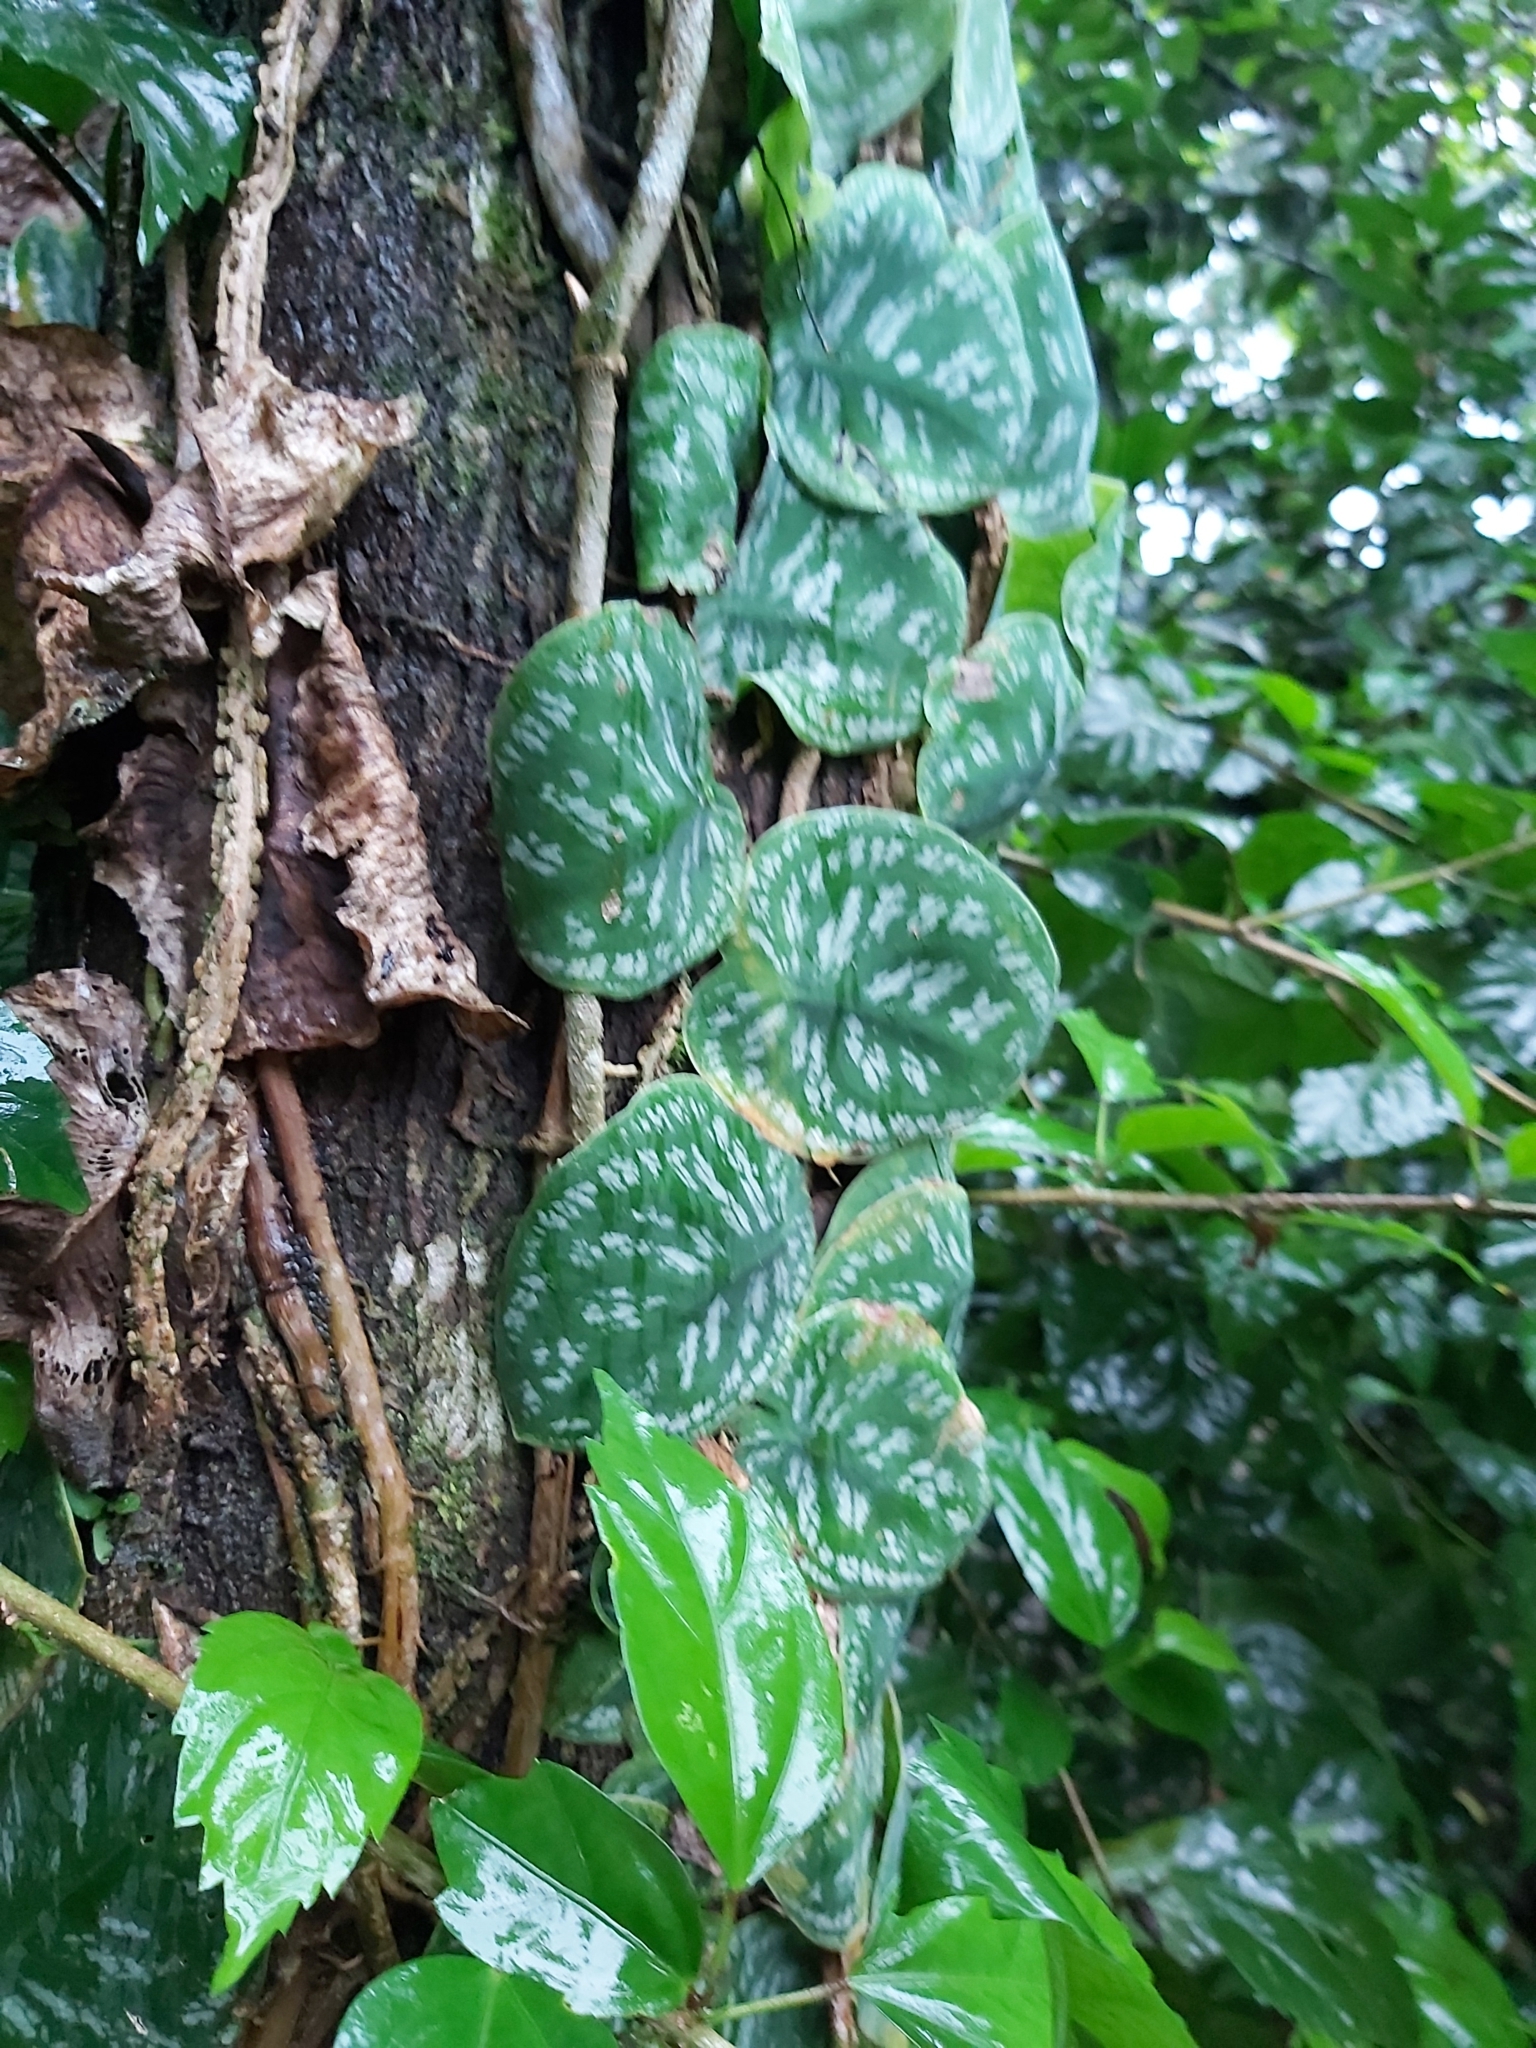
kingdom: Plantae
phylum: Tracheophyta
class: Liliopsida
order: Alismatales
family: Araceae
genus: Monstera
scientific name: Monstera tuberculata
